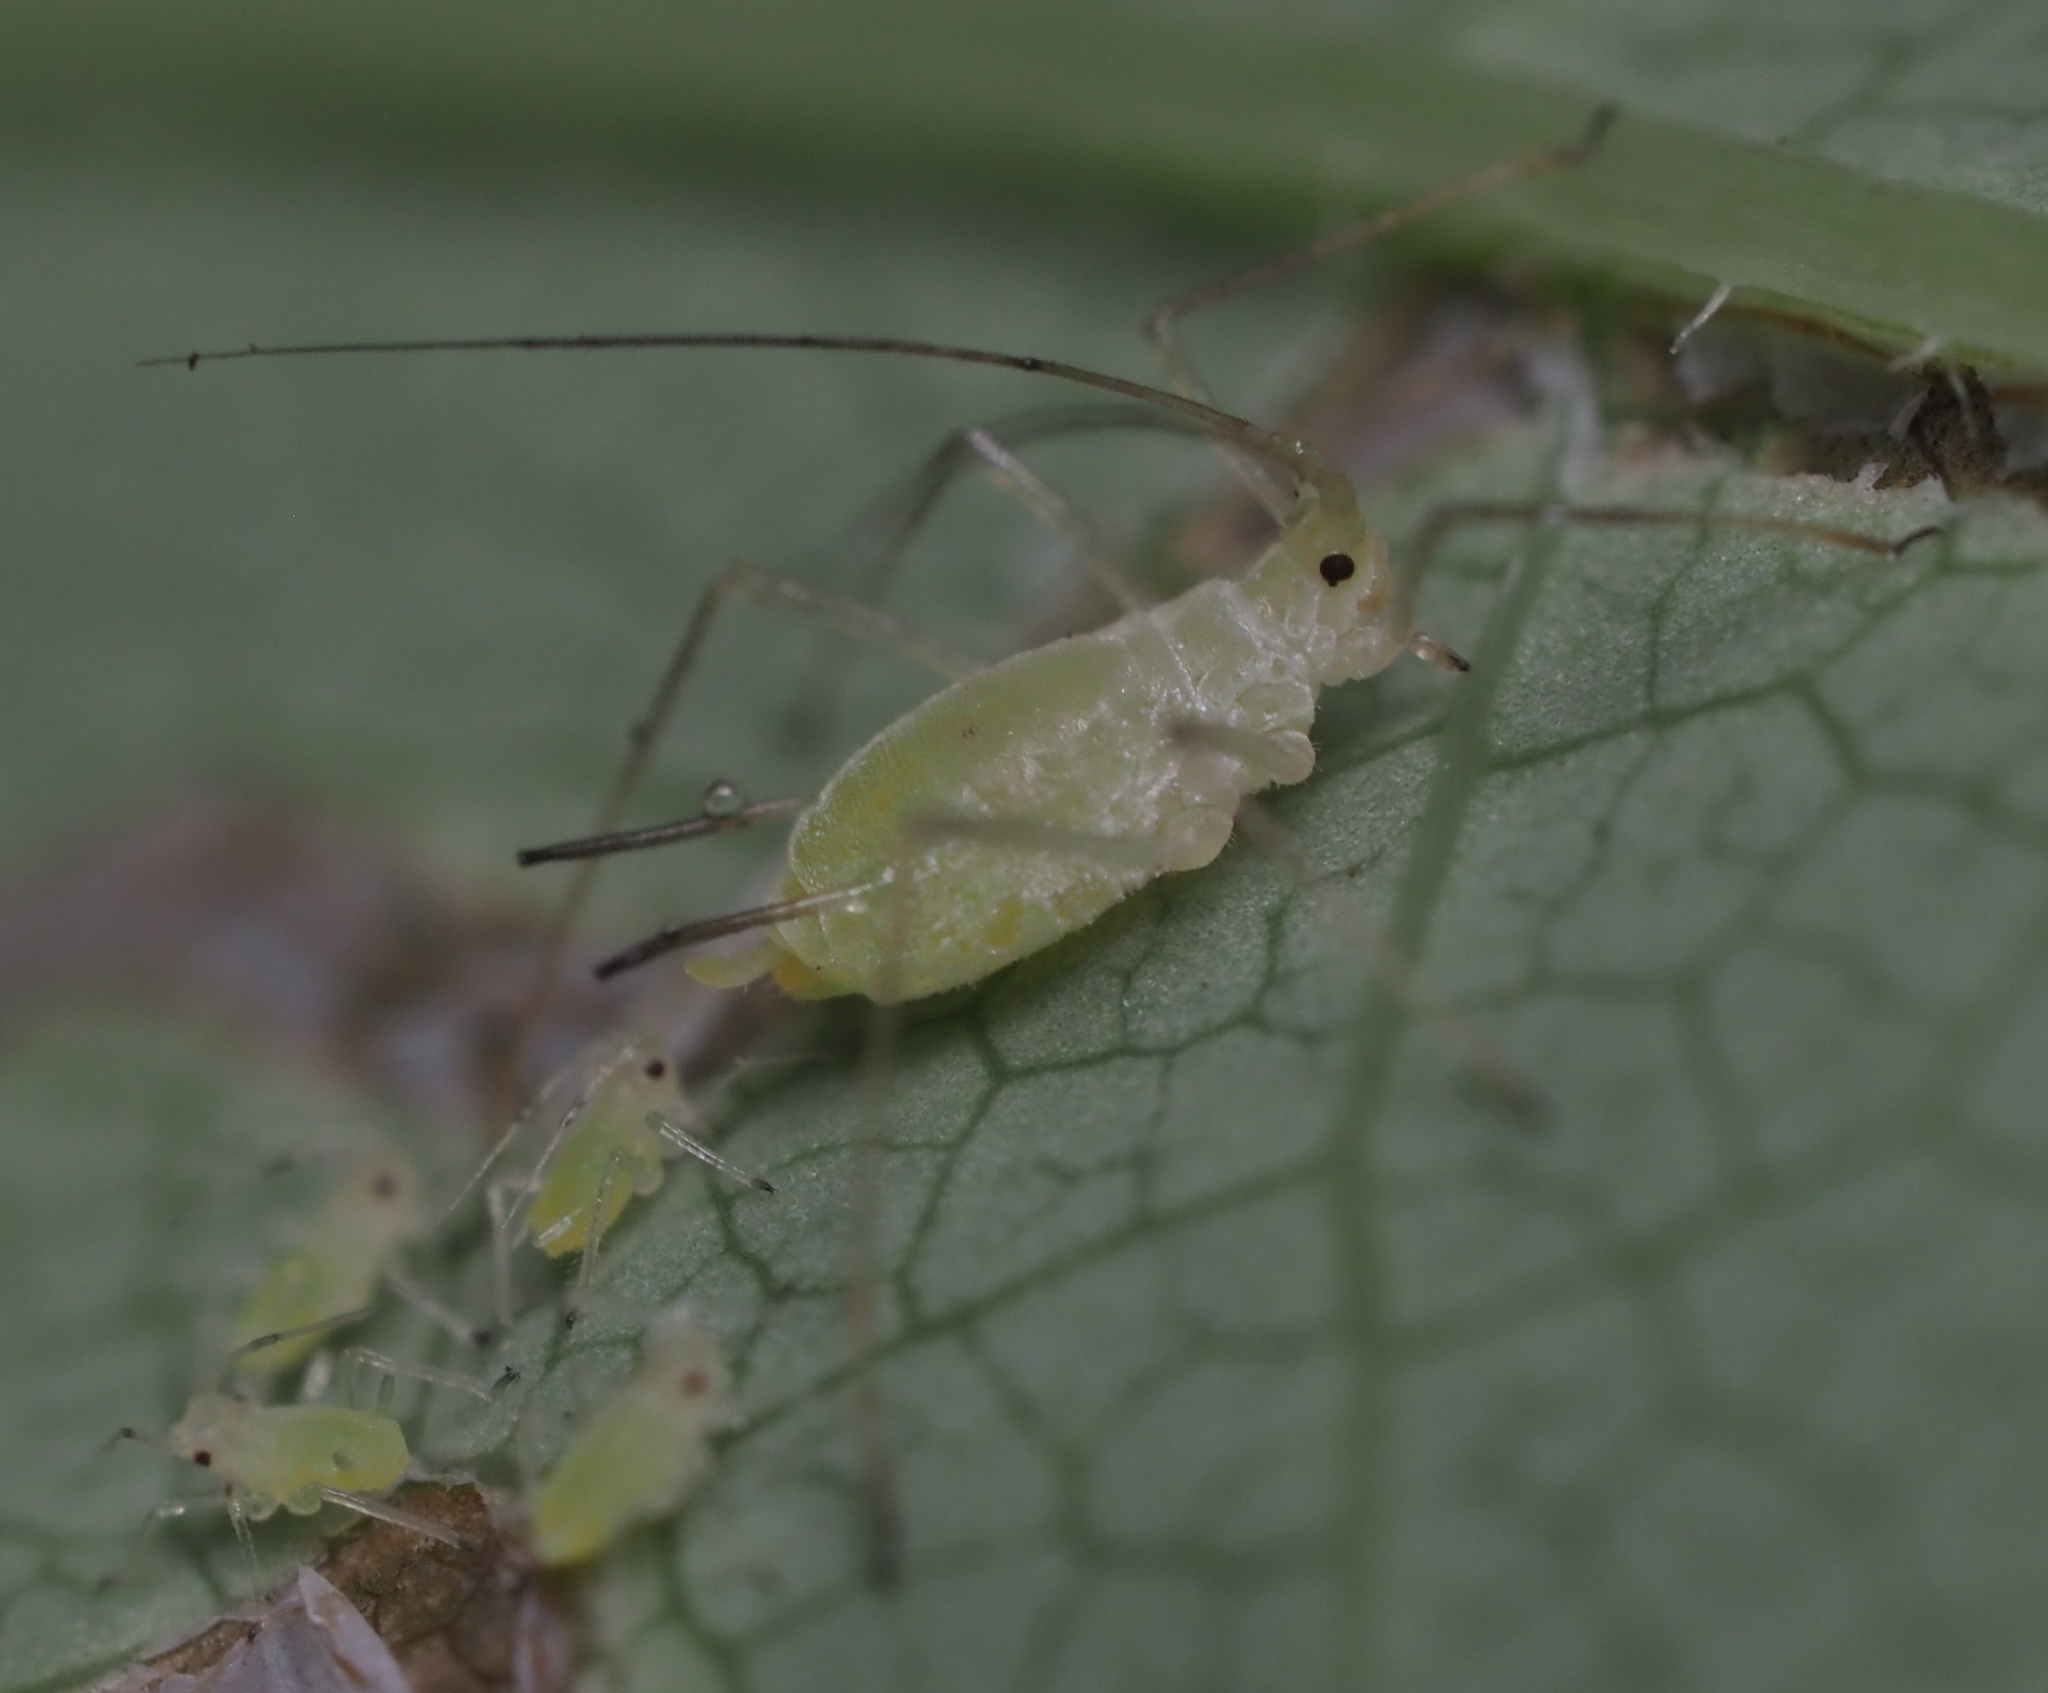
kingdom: Animalia
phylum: Arthropoda
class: Insecta
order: Hemiptera
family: Aphididae
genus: Illinoia
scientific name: Illinoia liriodendri
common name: Tuliptree aphid
